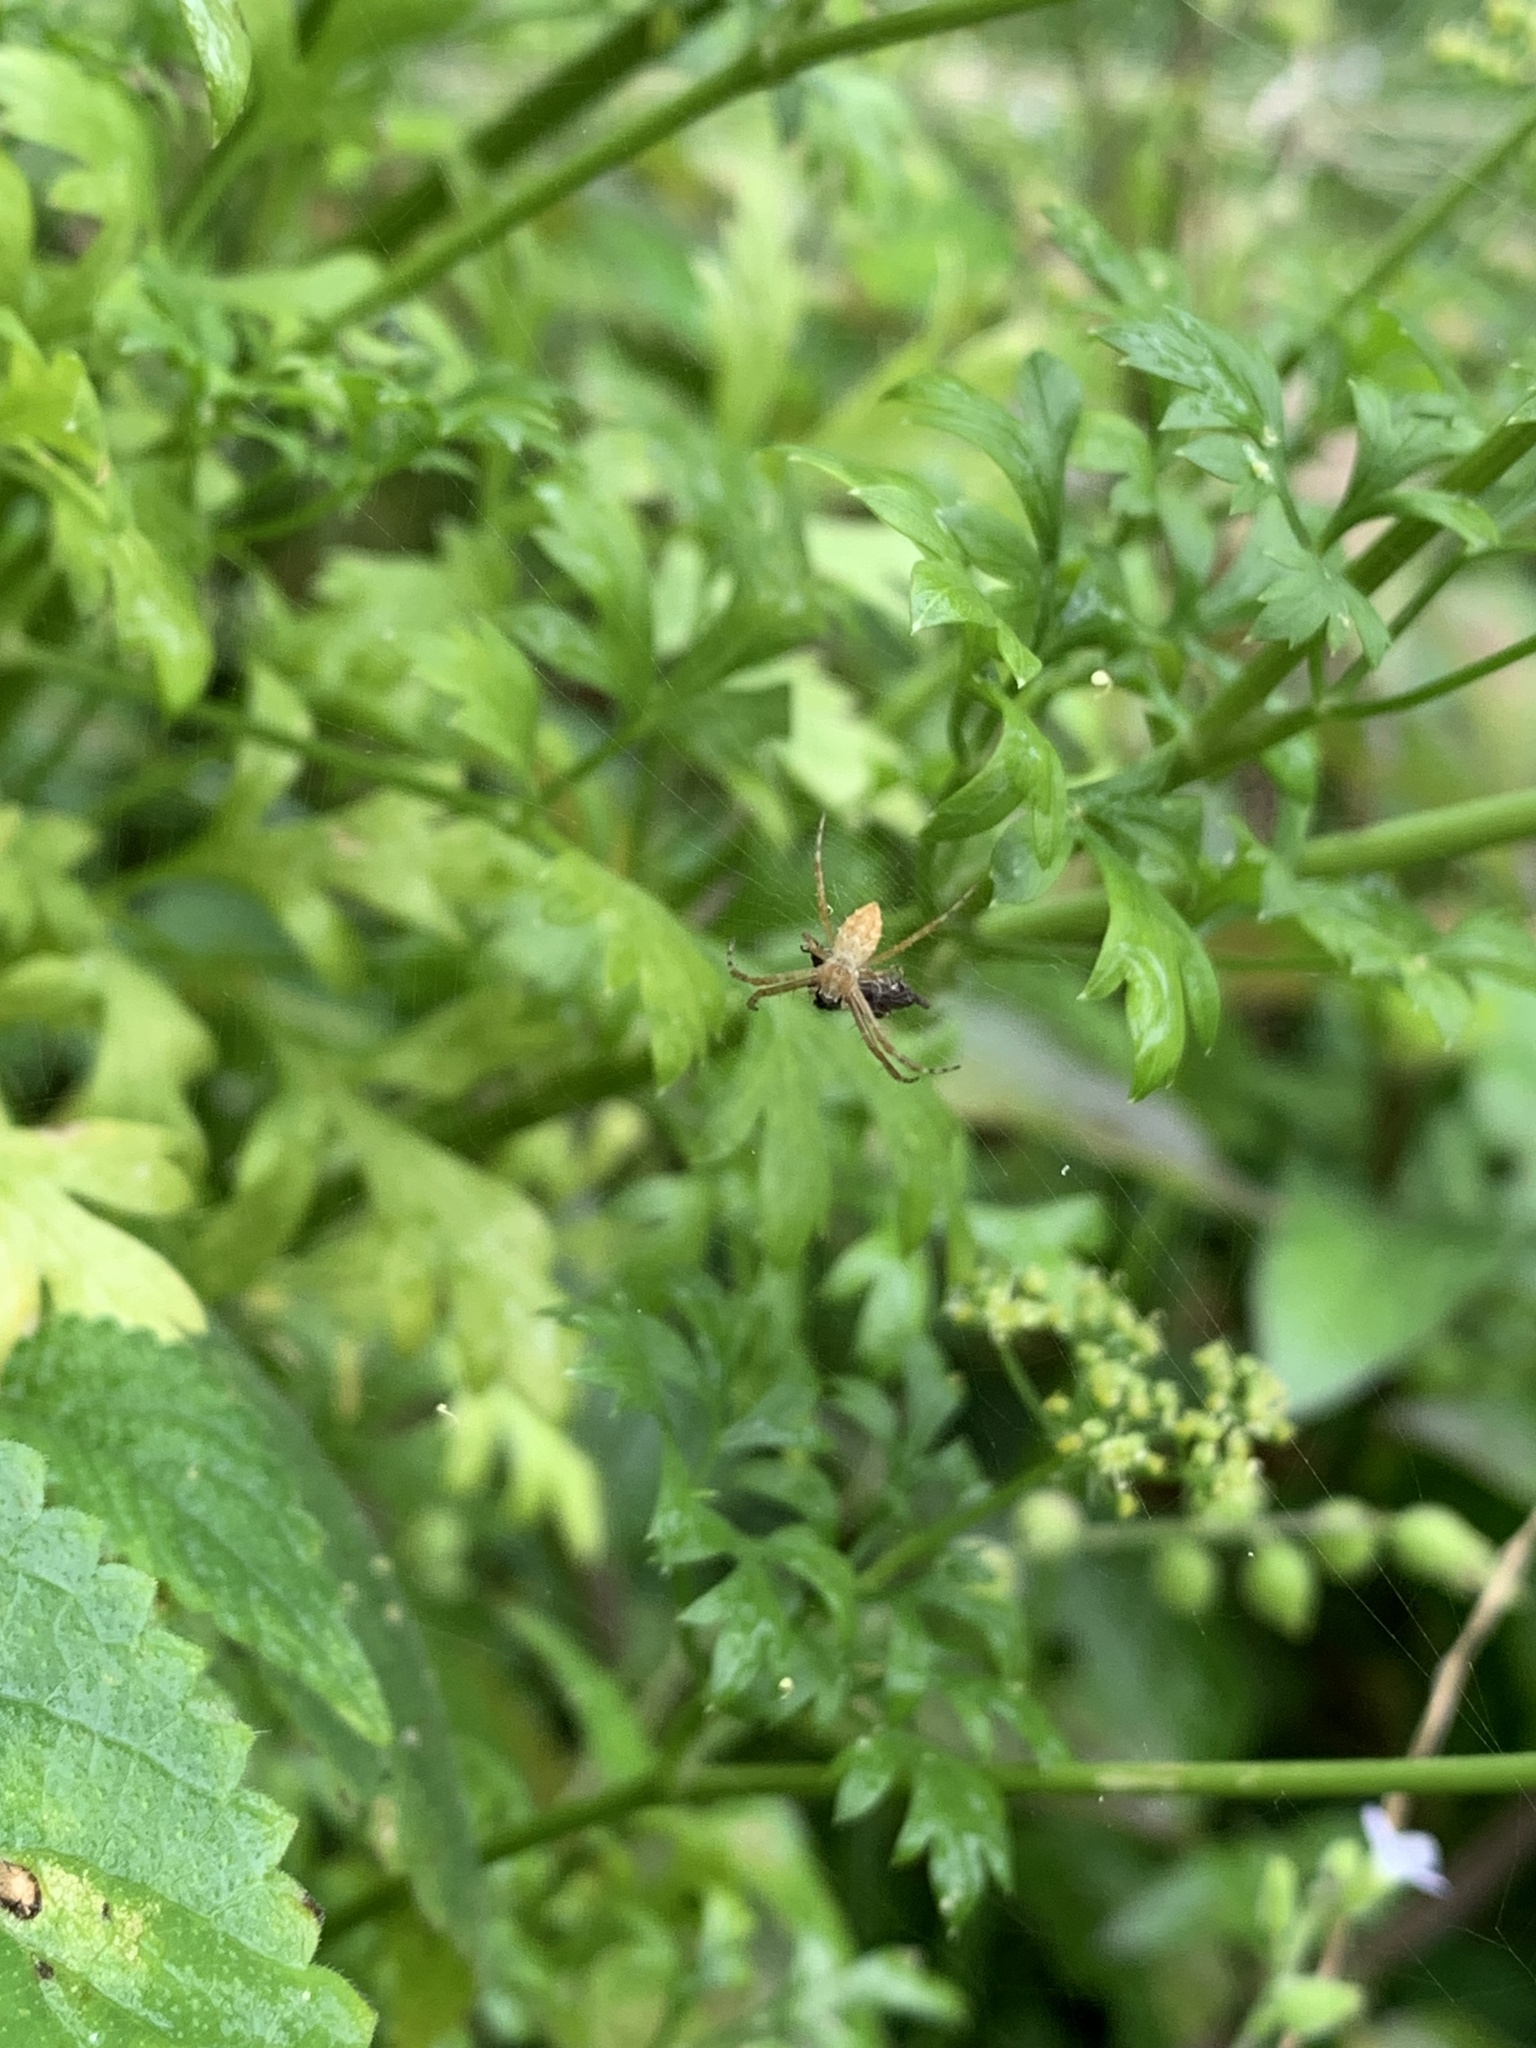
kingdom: Animalia
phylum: Arthropoda
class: Arachnida
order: Araneae
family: Araneidae
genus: Argiope
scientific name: Argiope argentata
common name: Orb weavers
